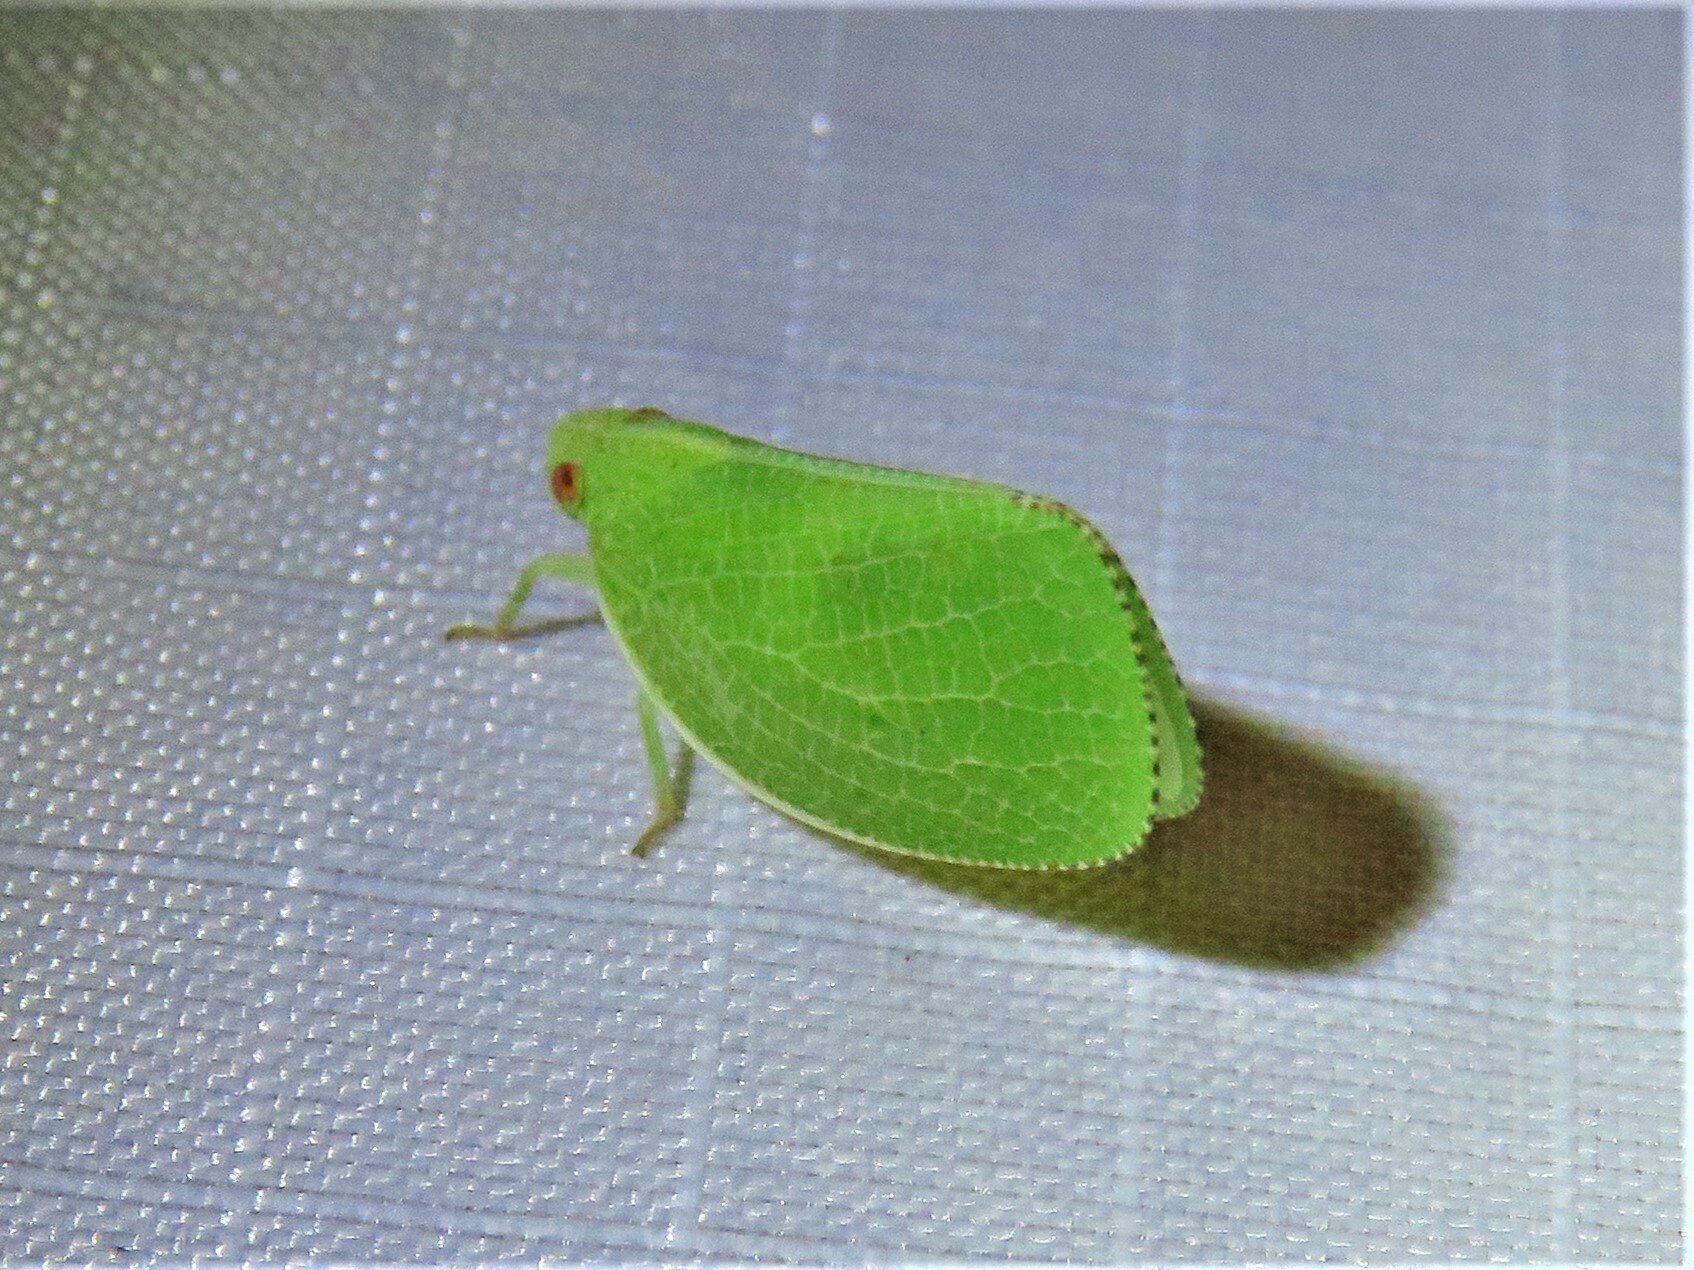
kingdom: Animalia
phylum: Arthropoda
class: Insecta
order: Hemiptera
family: Acanaloniidae
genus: Acanalonia
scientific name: Acanalonia conica
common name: Green cone-headed planthopper
